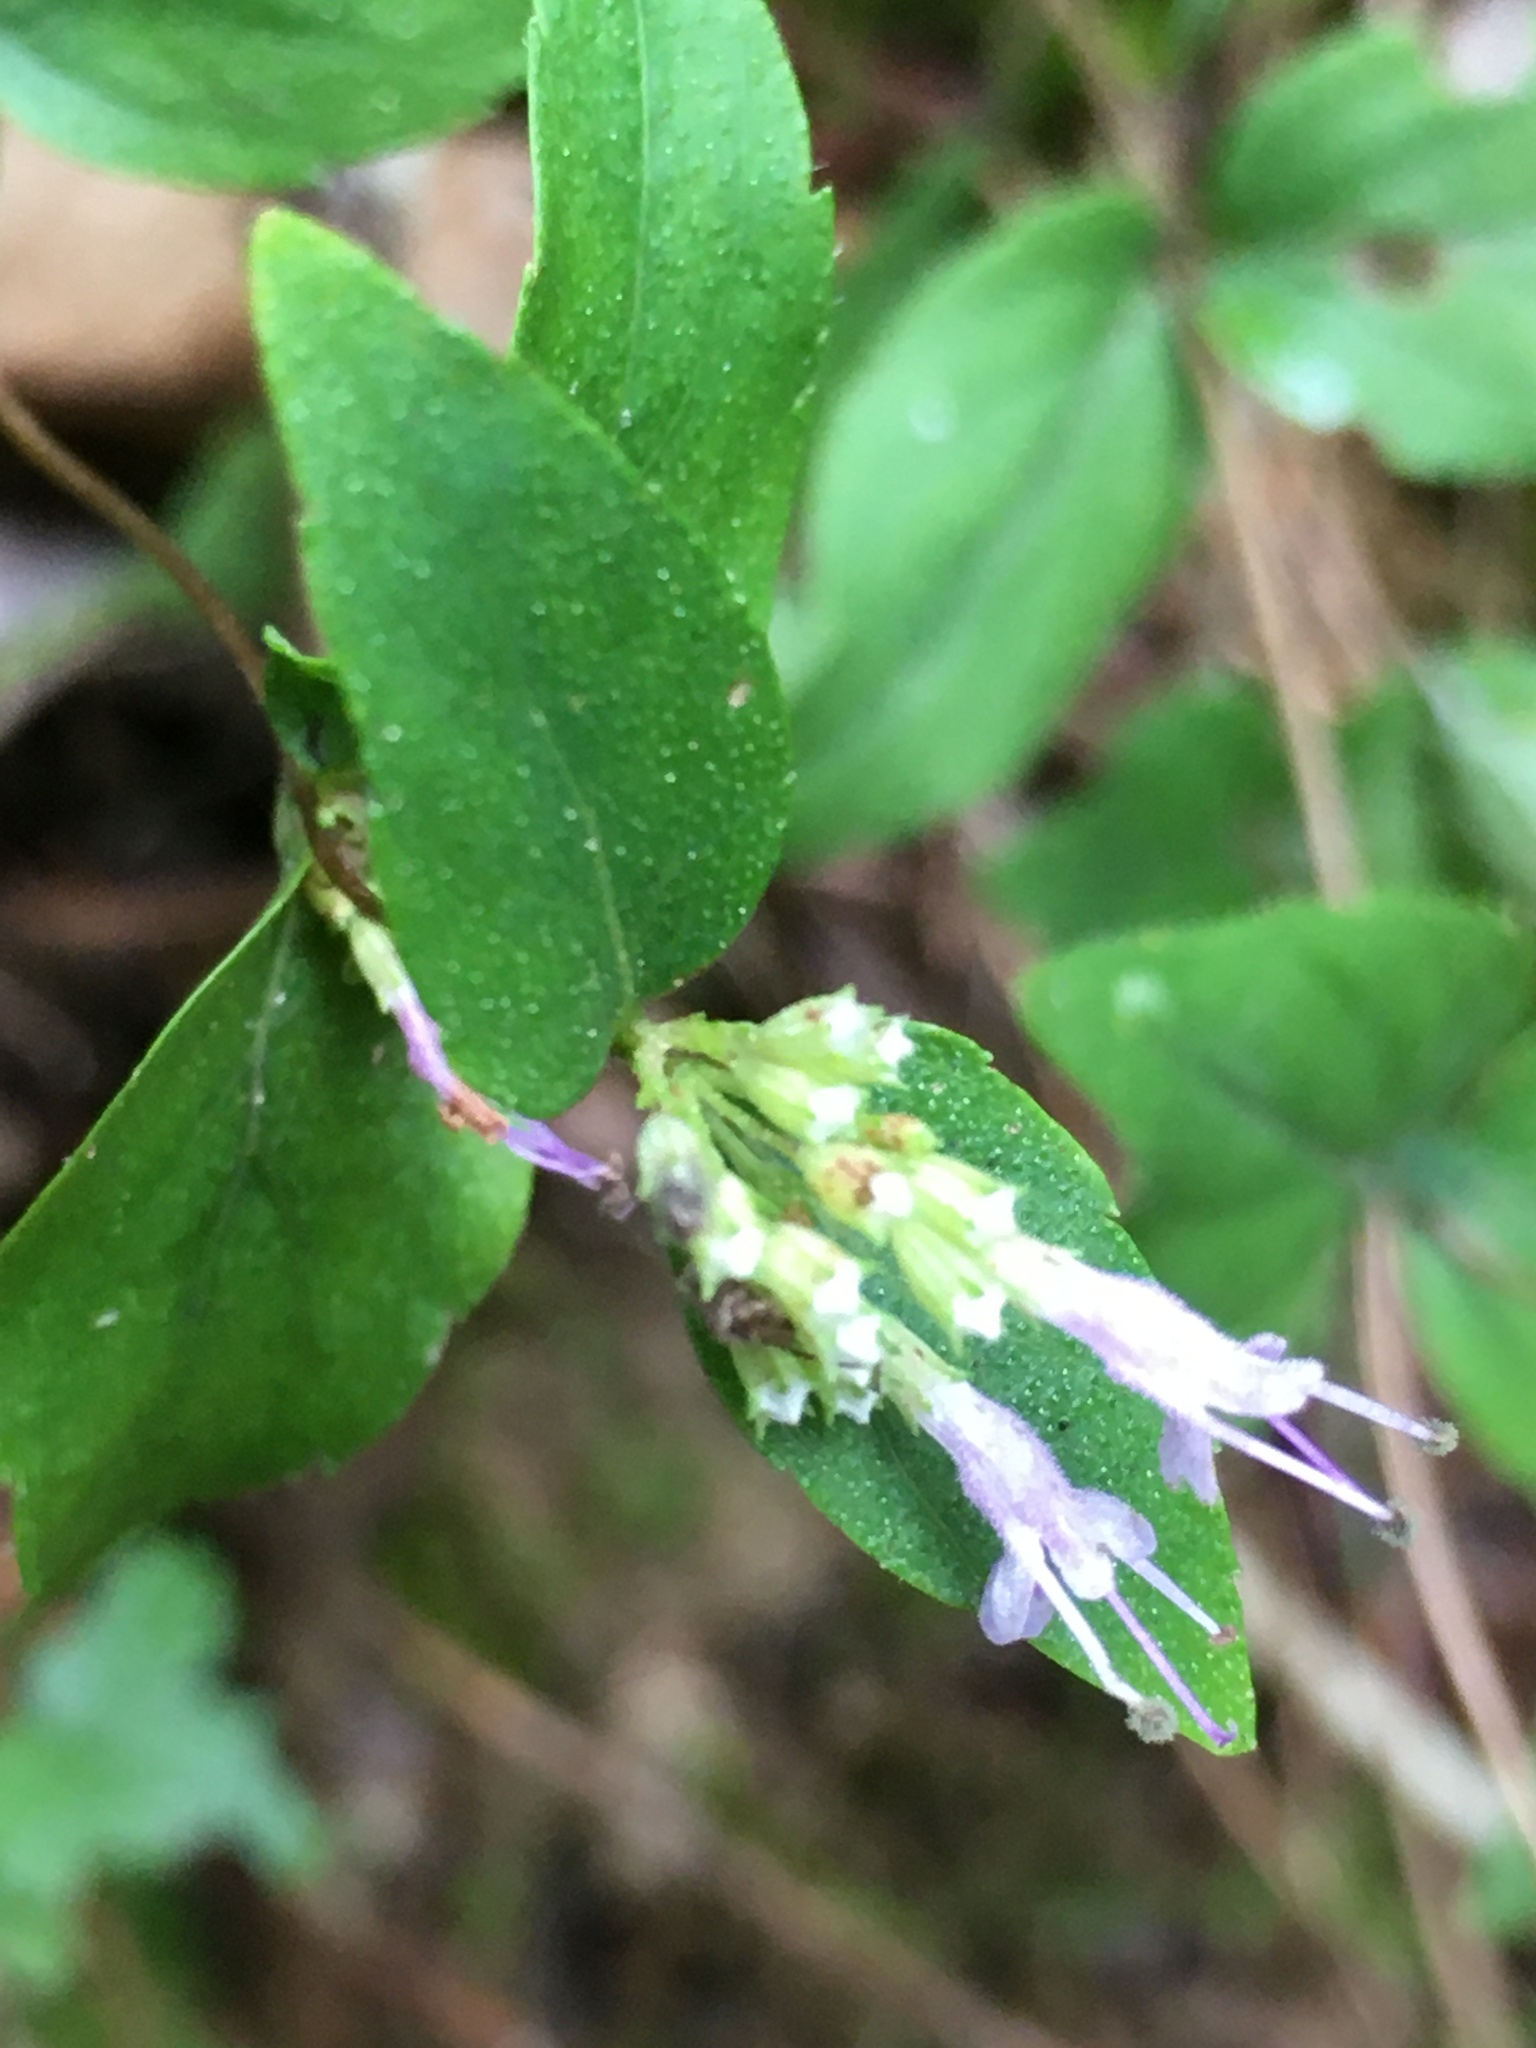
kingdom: Plantae
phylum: Tracheophyta
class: Magnoliopsida
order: Lamiales
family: Lamiaceae
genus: Cunila
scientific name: Cunila origanoides
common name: American dittany
